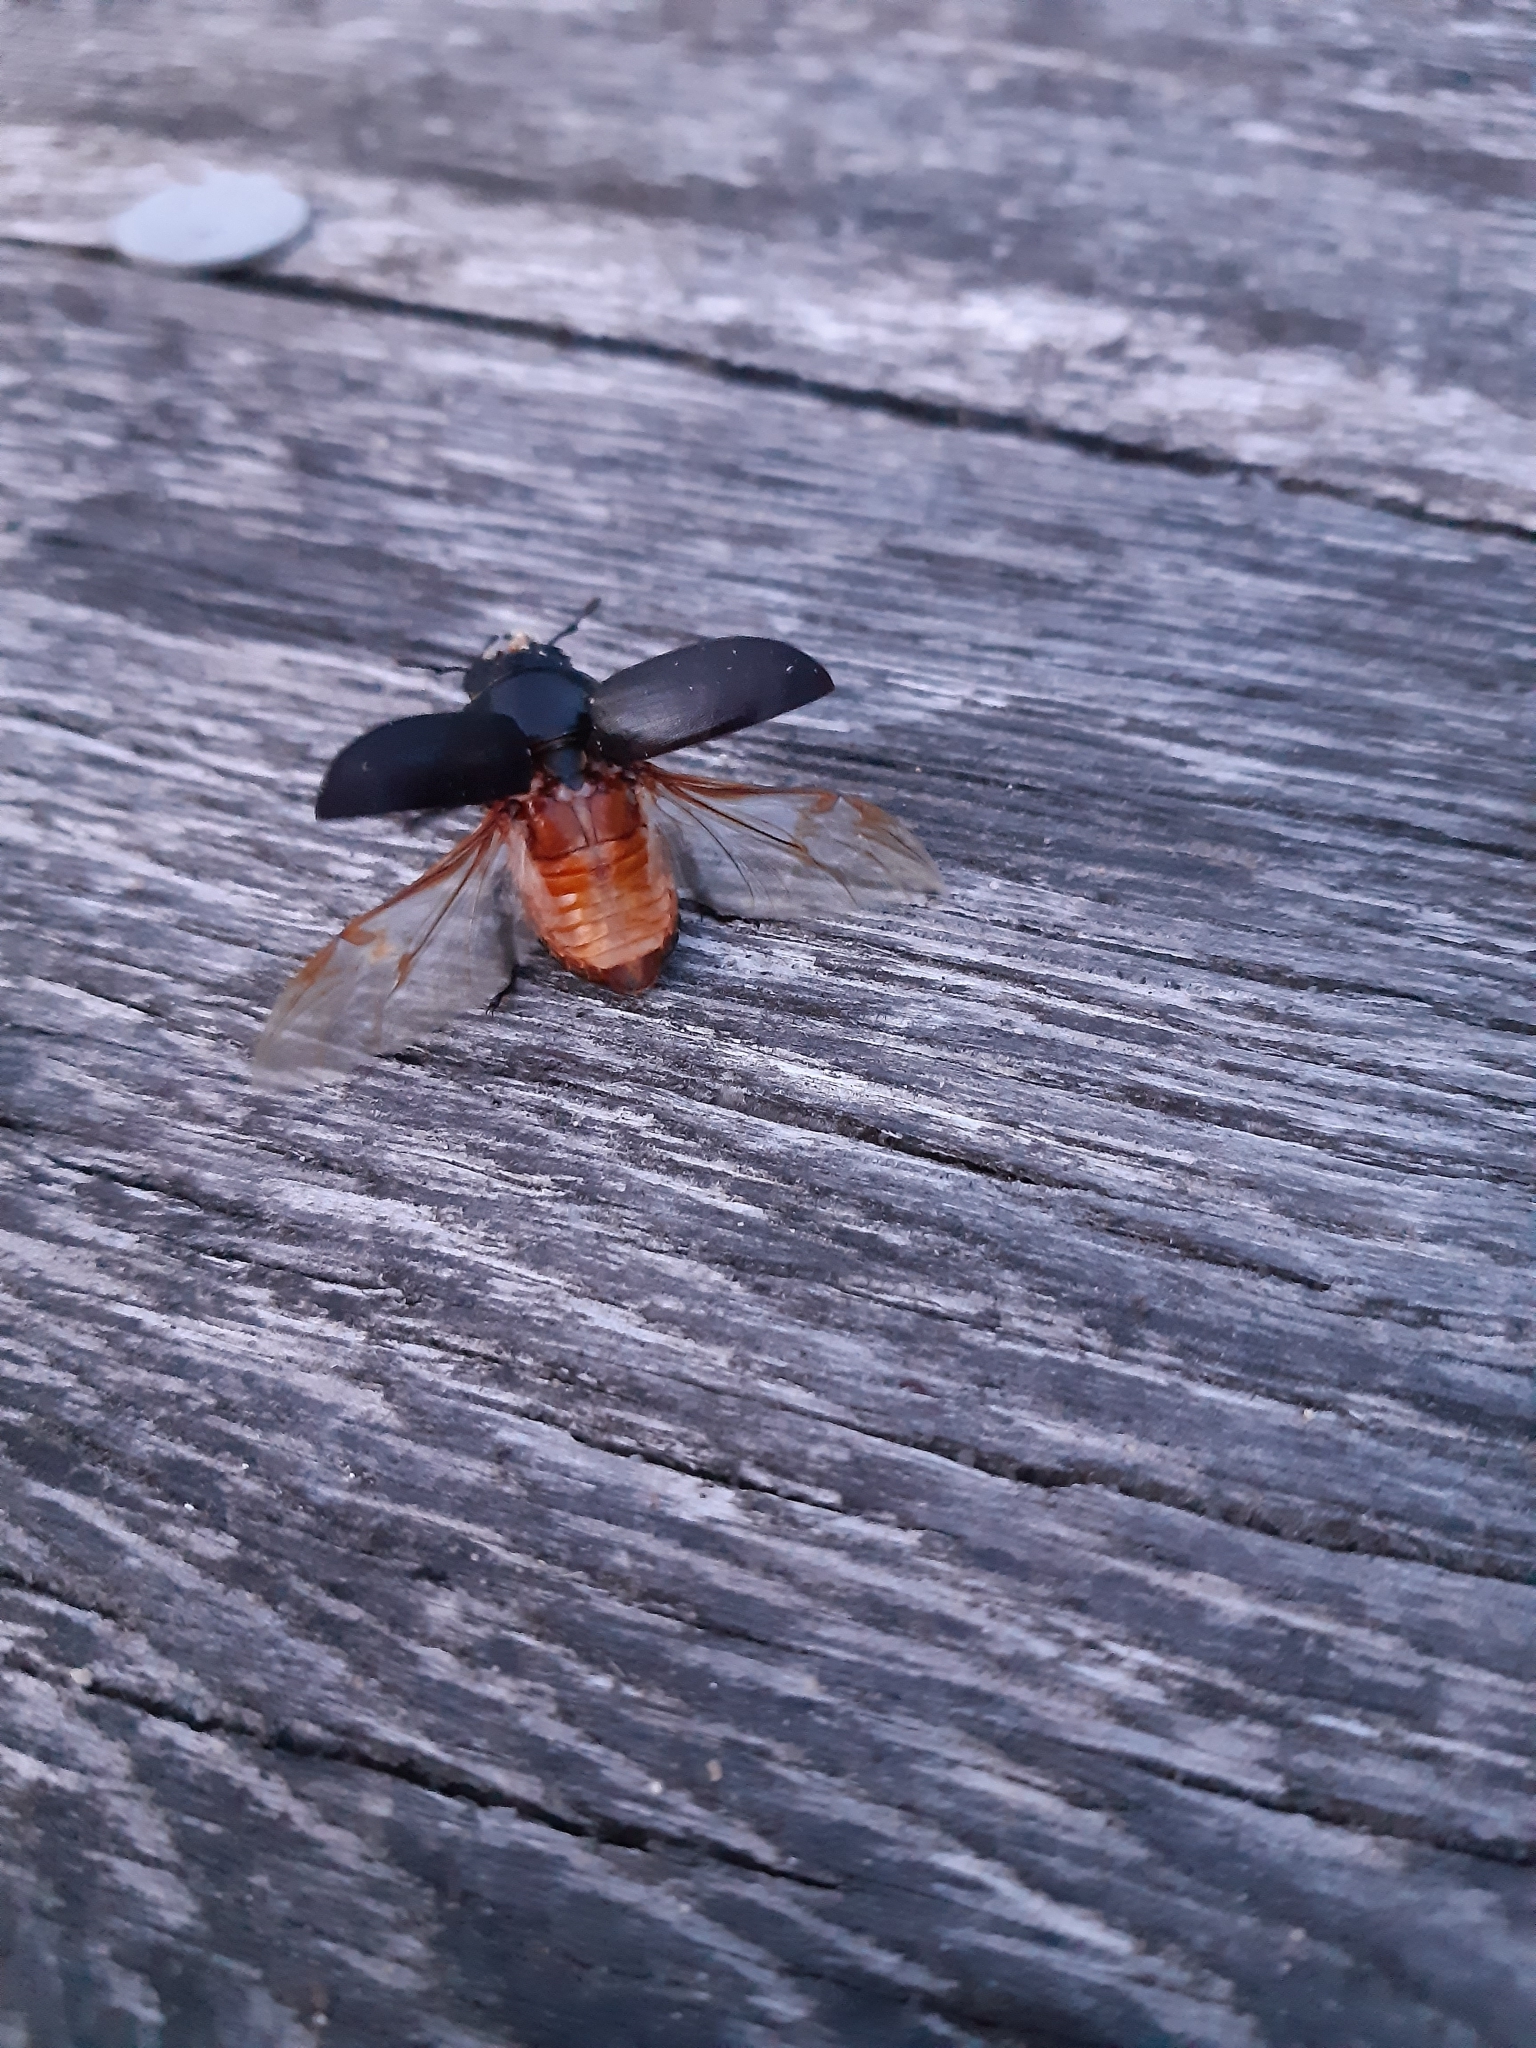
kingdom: Animalia
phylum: Arthropoda
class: Insecta
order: Coleoptera
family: Lucanidae
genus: Dorcus
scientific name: Dorcus parallelipipedus
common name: Lesser stag beetle
